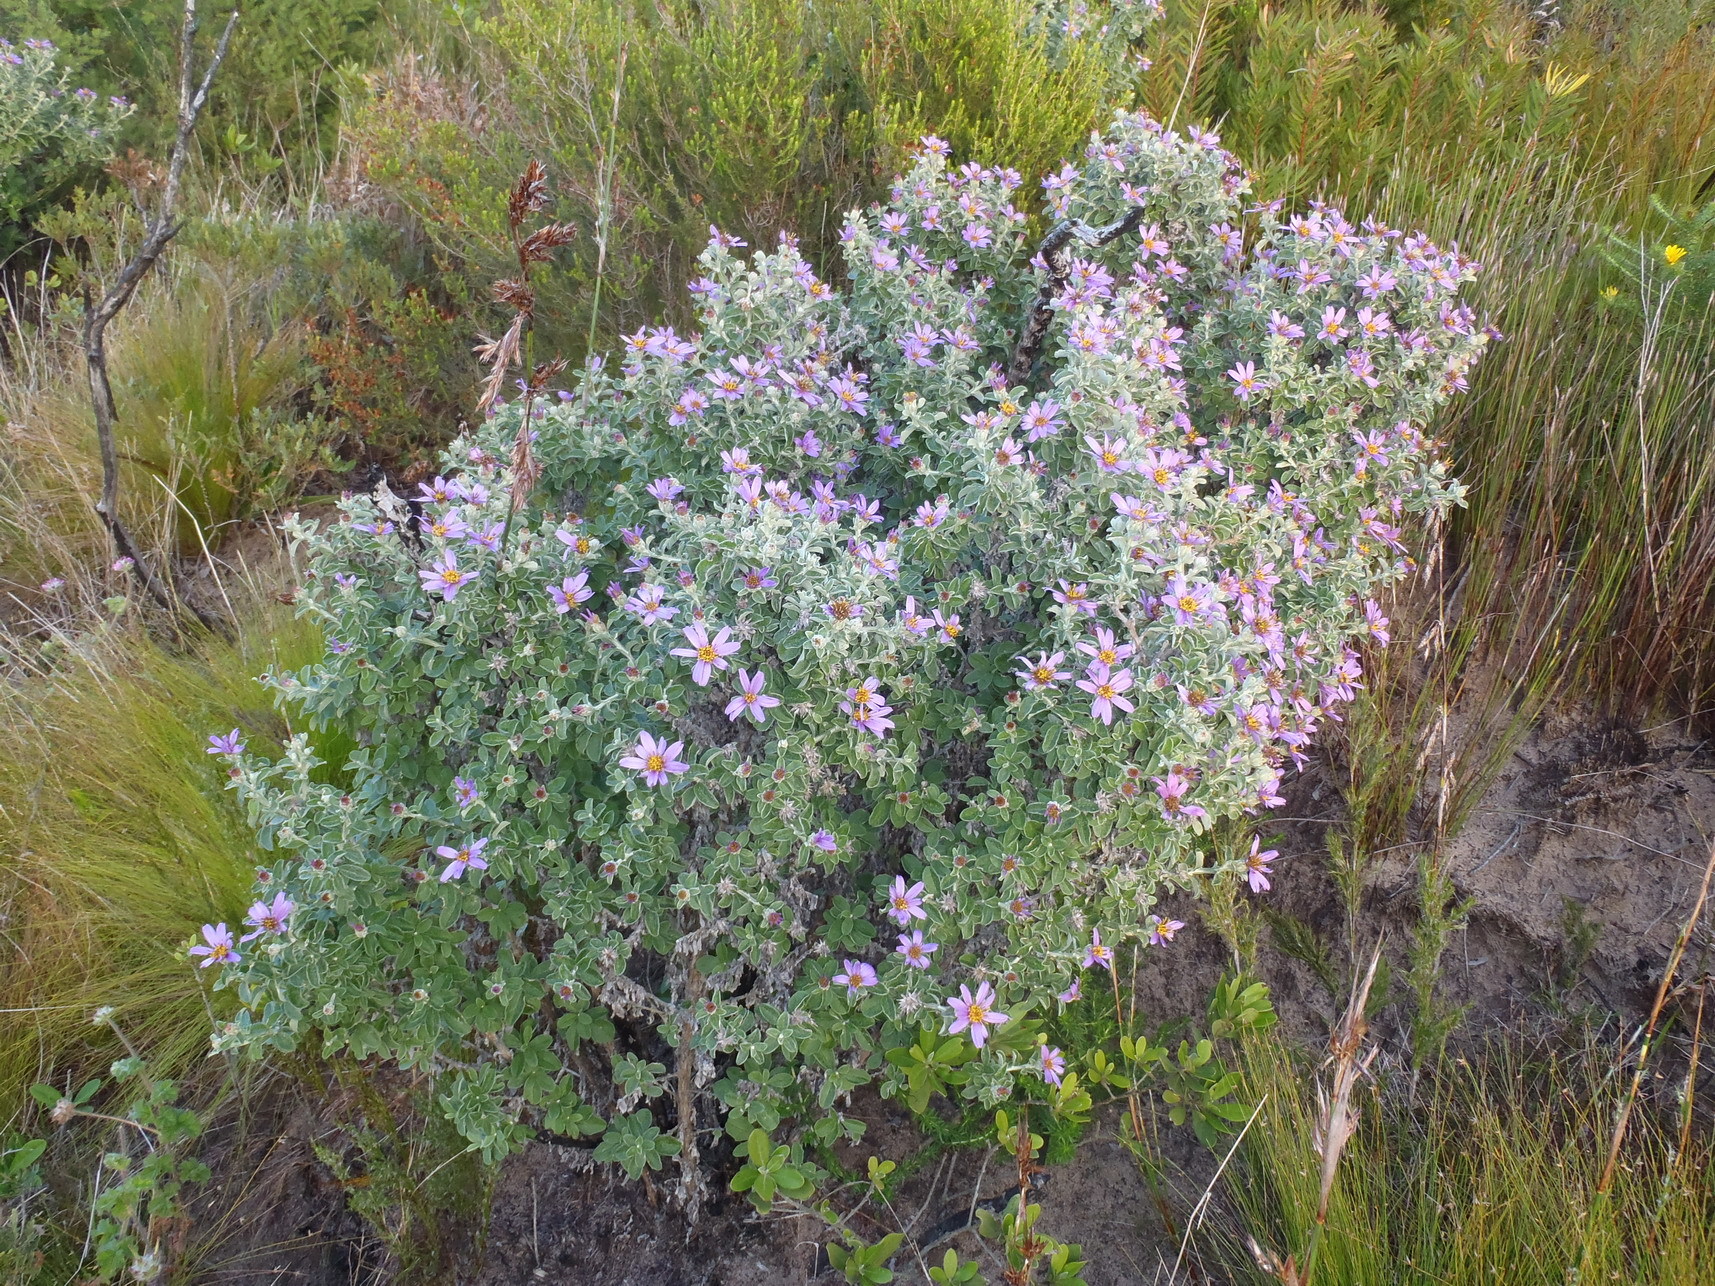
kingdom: Plantae
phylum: Tracheophyta
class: Magnoliopsida
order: Asterales
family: Asteraceae
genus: Printzia
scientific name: Printzia polifolia
